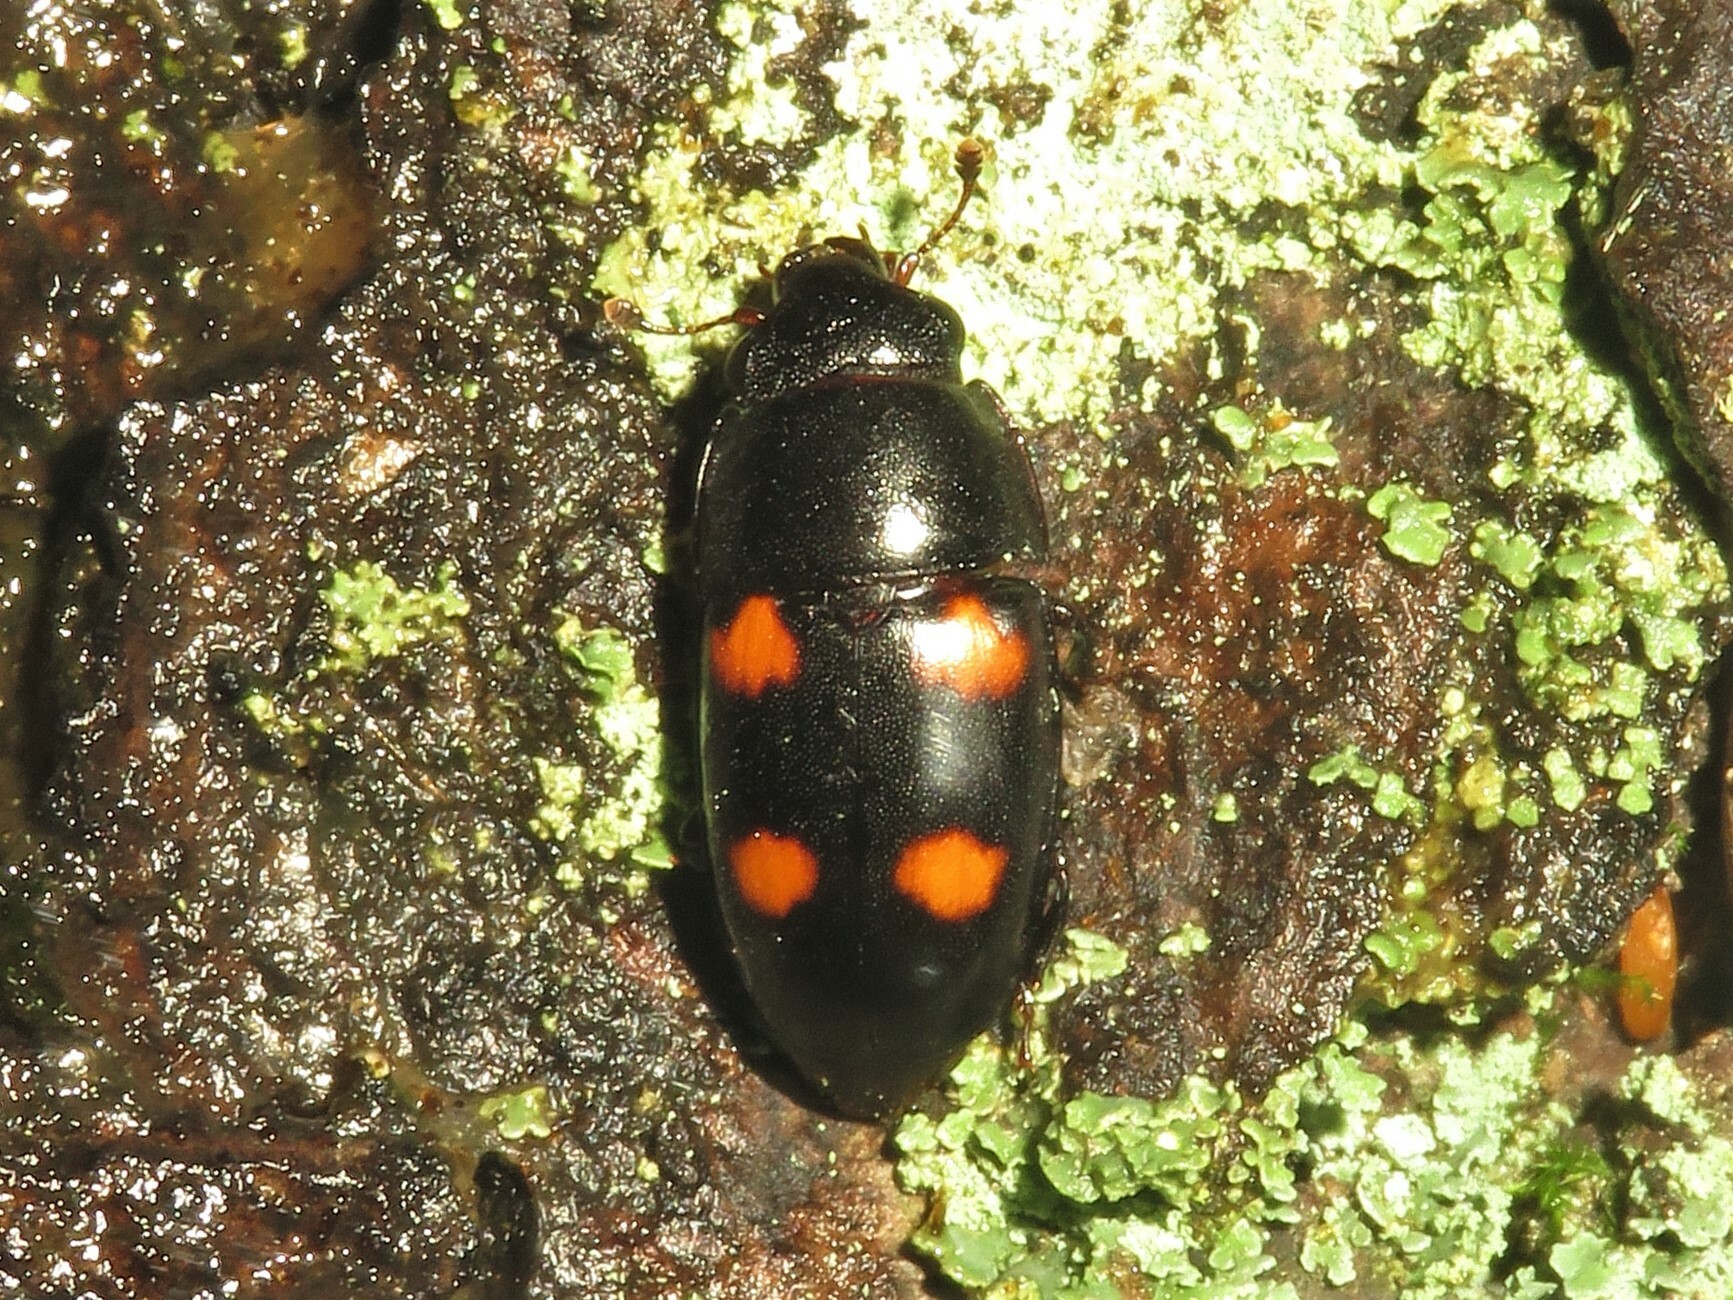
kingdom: Animalia
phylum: Arthropoda
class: Insecta
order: Coleoptera
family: Nitidulidae
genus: Glischrochilus
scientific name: Glischrochilus obtusus
